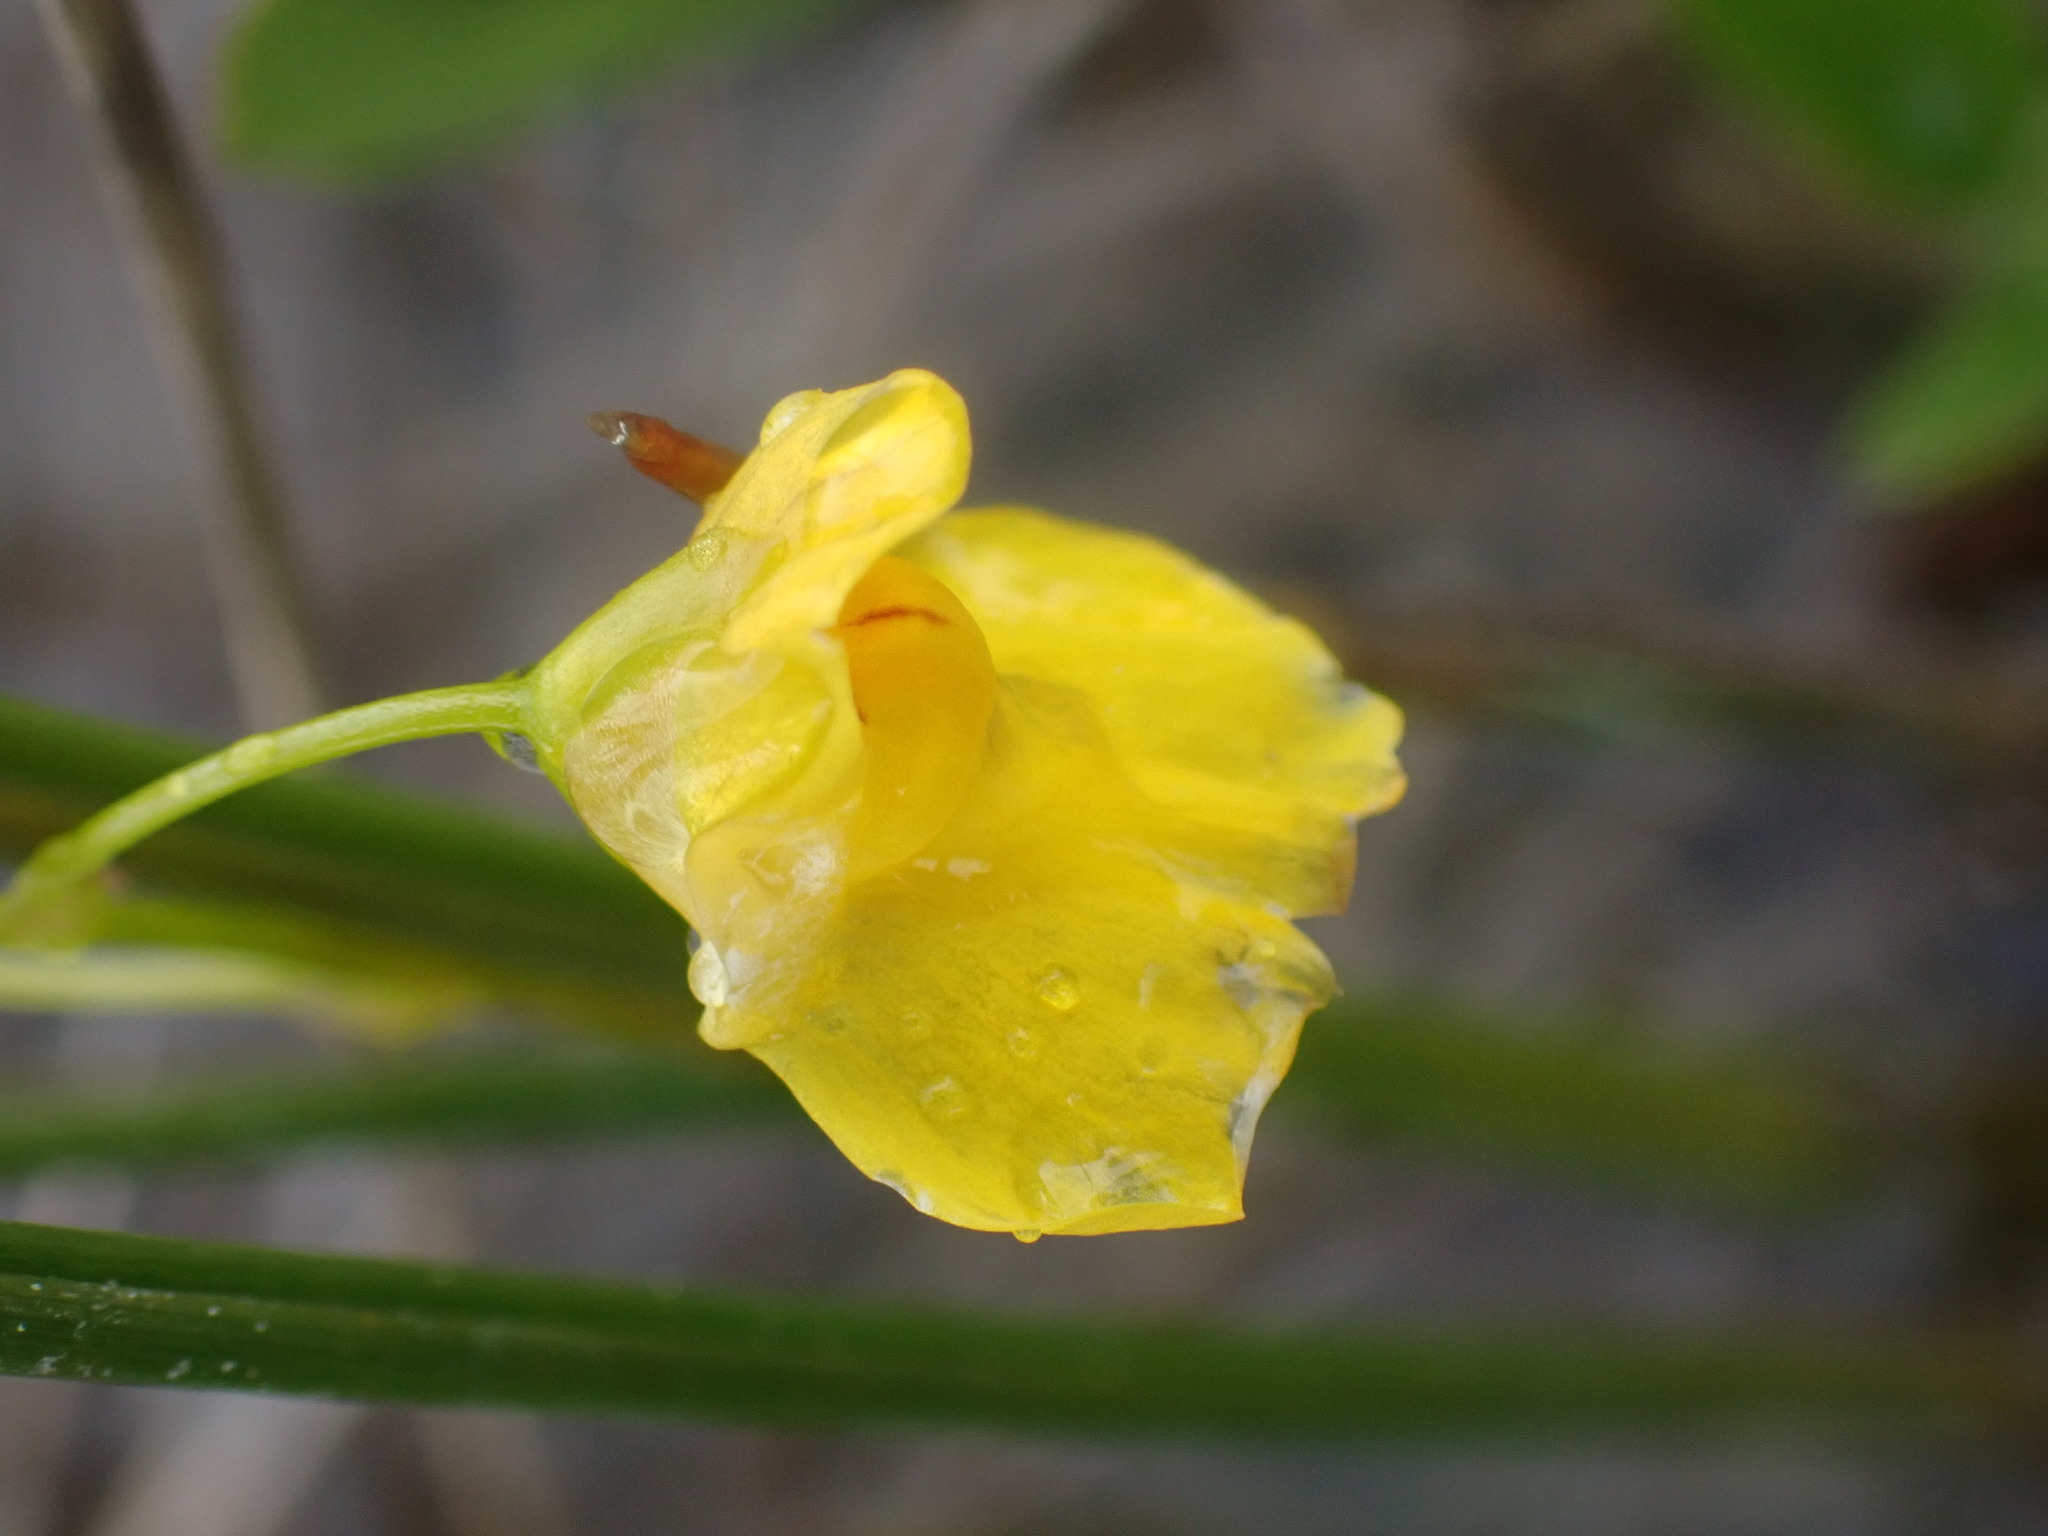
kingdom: Plantae
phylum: Tracheophyta
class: Magnoliopsida
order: Lamiales
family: Lentibulariaceae
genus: Utricularia
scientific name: Utricularia intermedia
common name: Intermediate bladderwort
